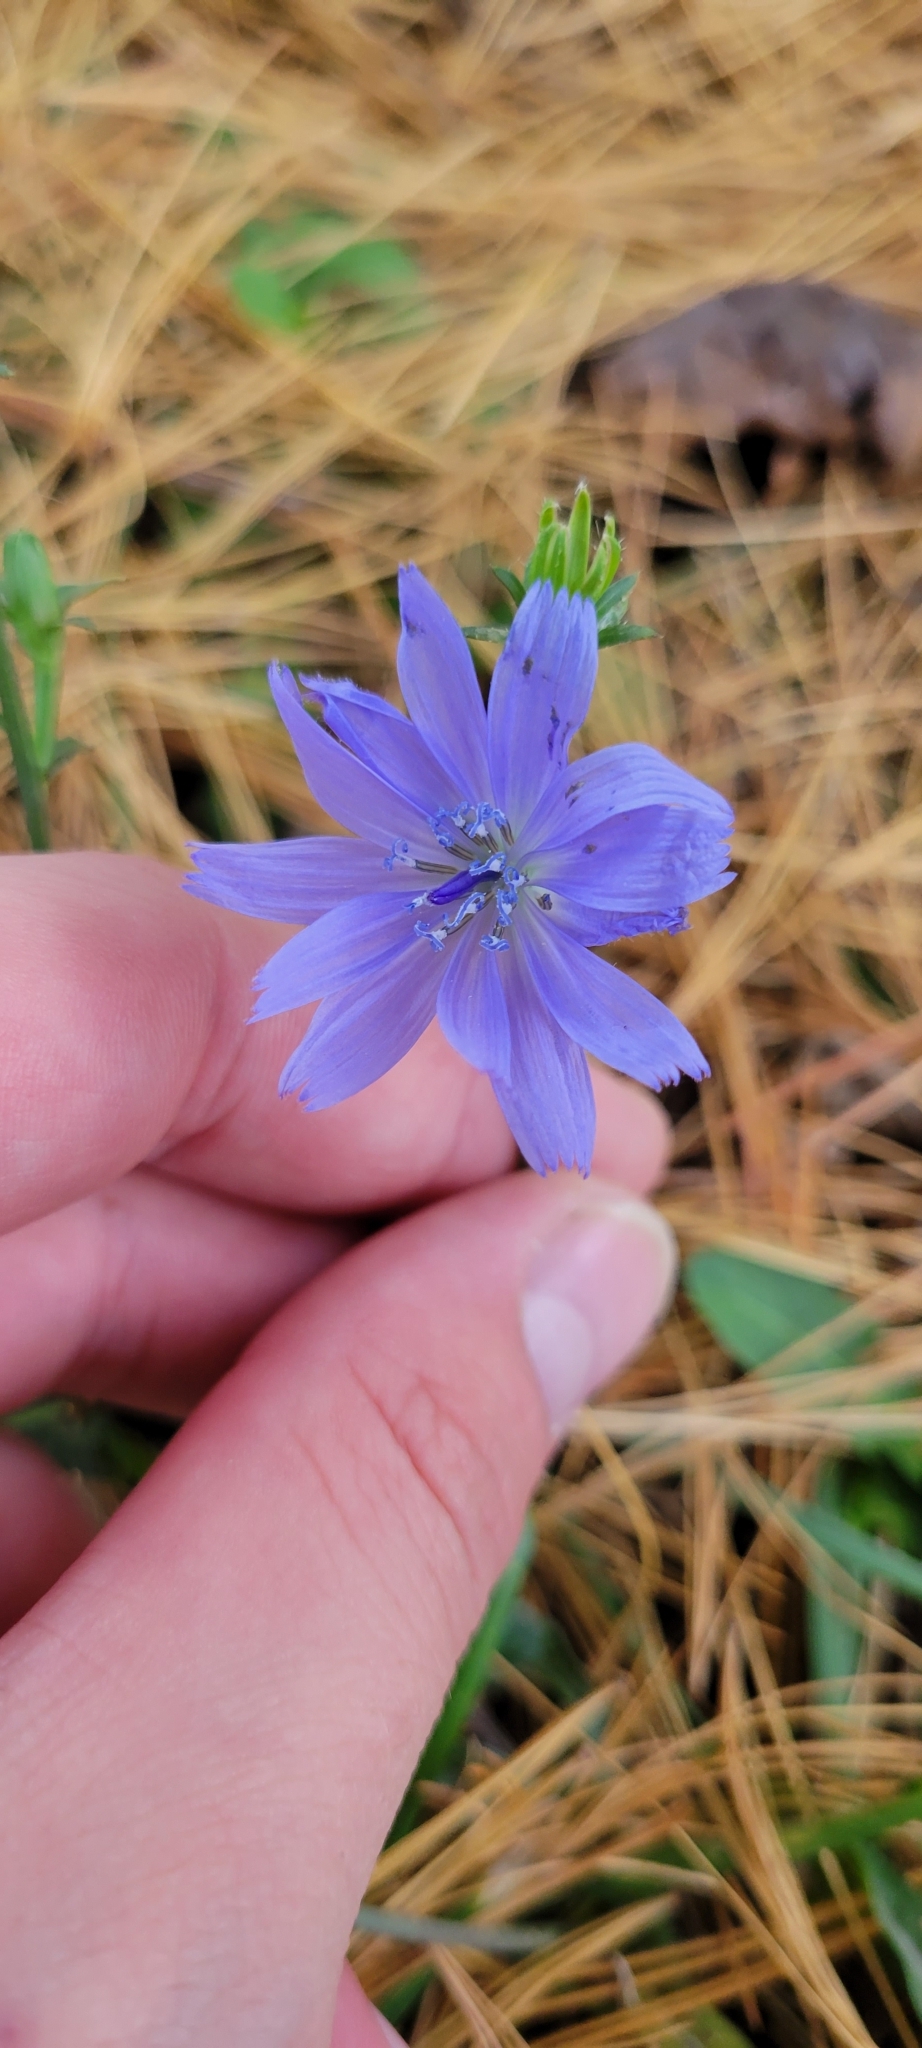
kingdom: Plantae
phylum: Tracheophyta
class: Magnoliopsida
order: Asterales
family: Asteraceae
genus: Cichorium
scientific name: Cichorium intybus
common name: Chicory
